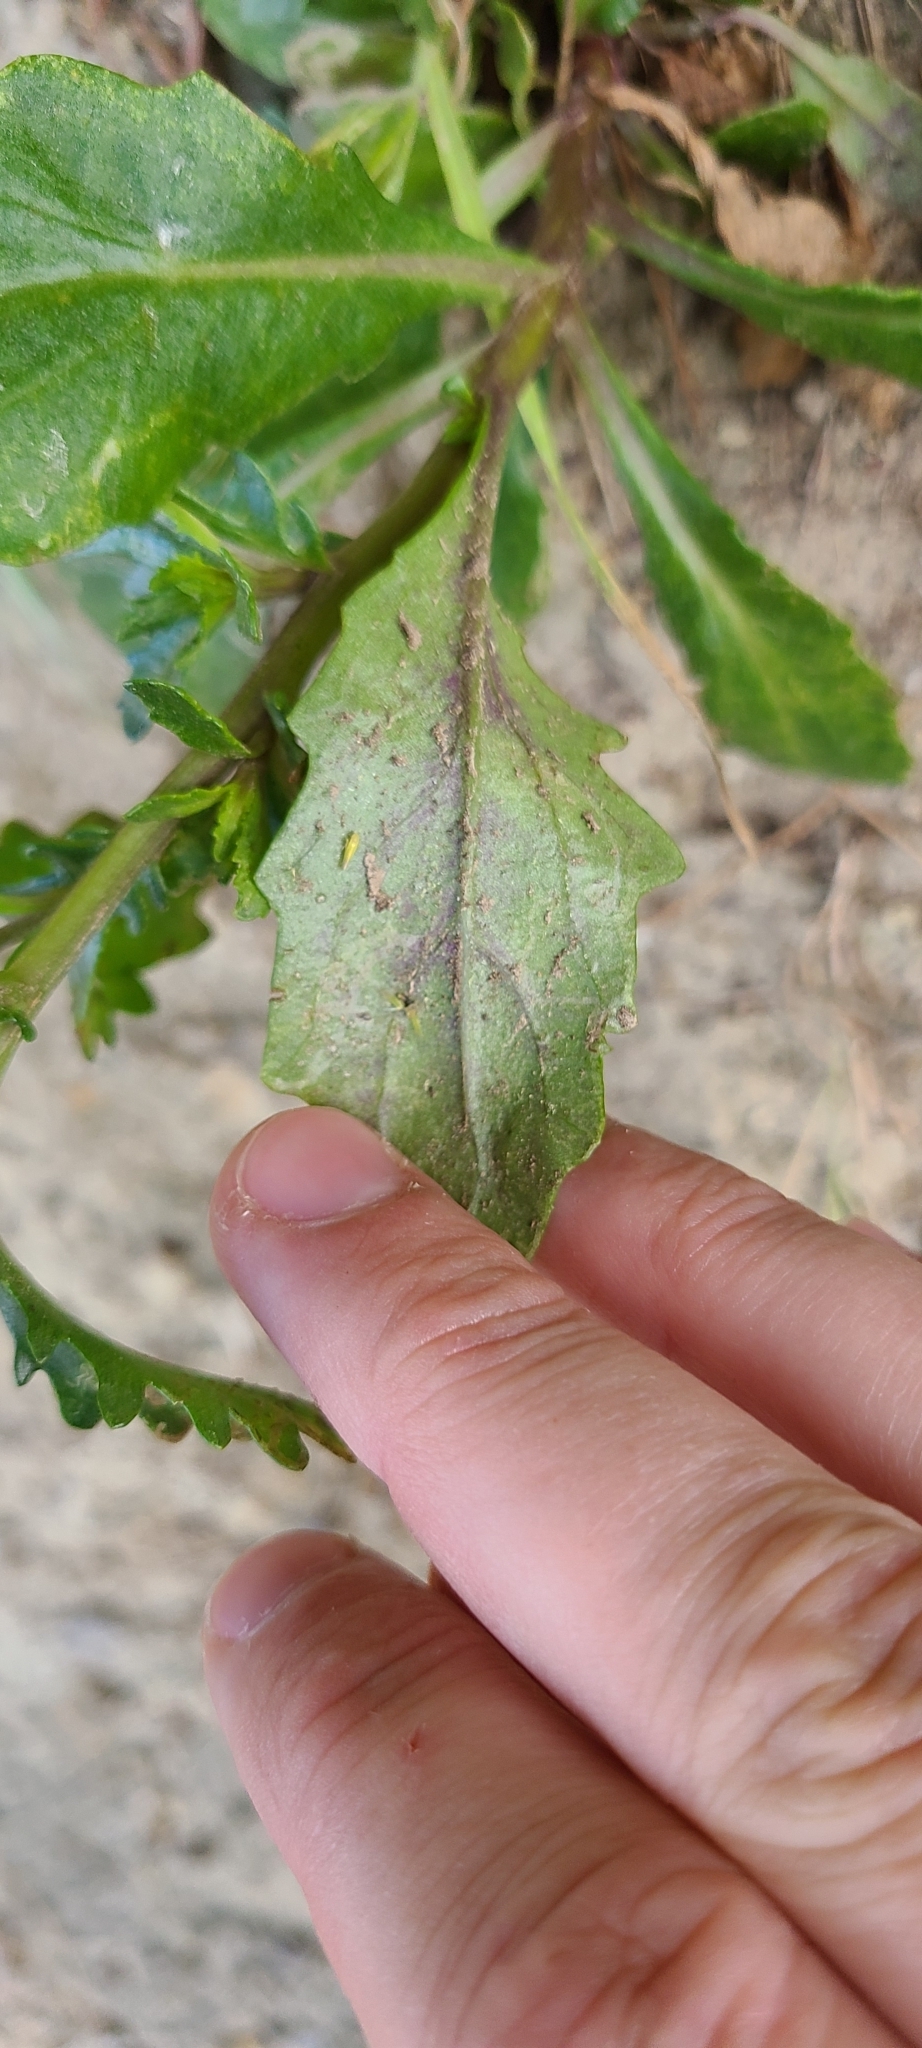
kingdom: Plantae
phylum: Tracheophyta
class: Magnoliopsida
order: Asterales
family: Asteraceae
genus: Senecio
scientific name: Senecio matatini
